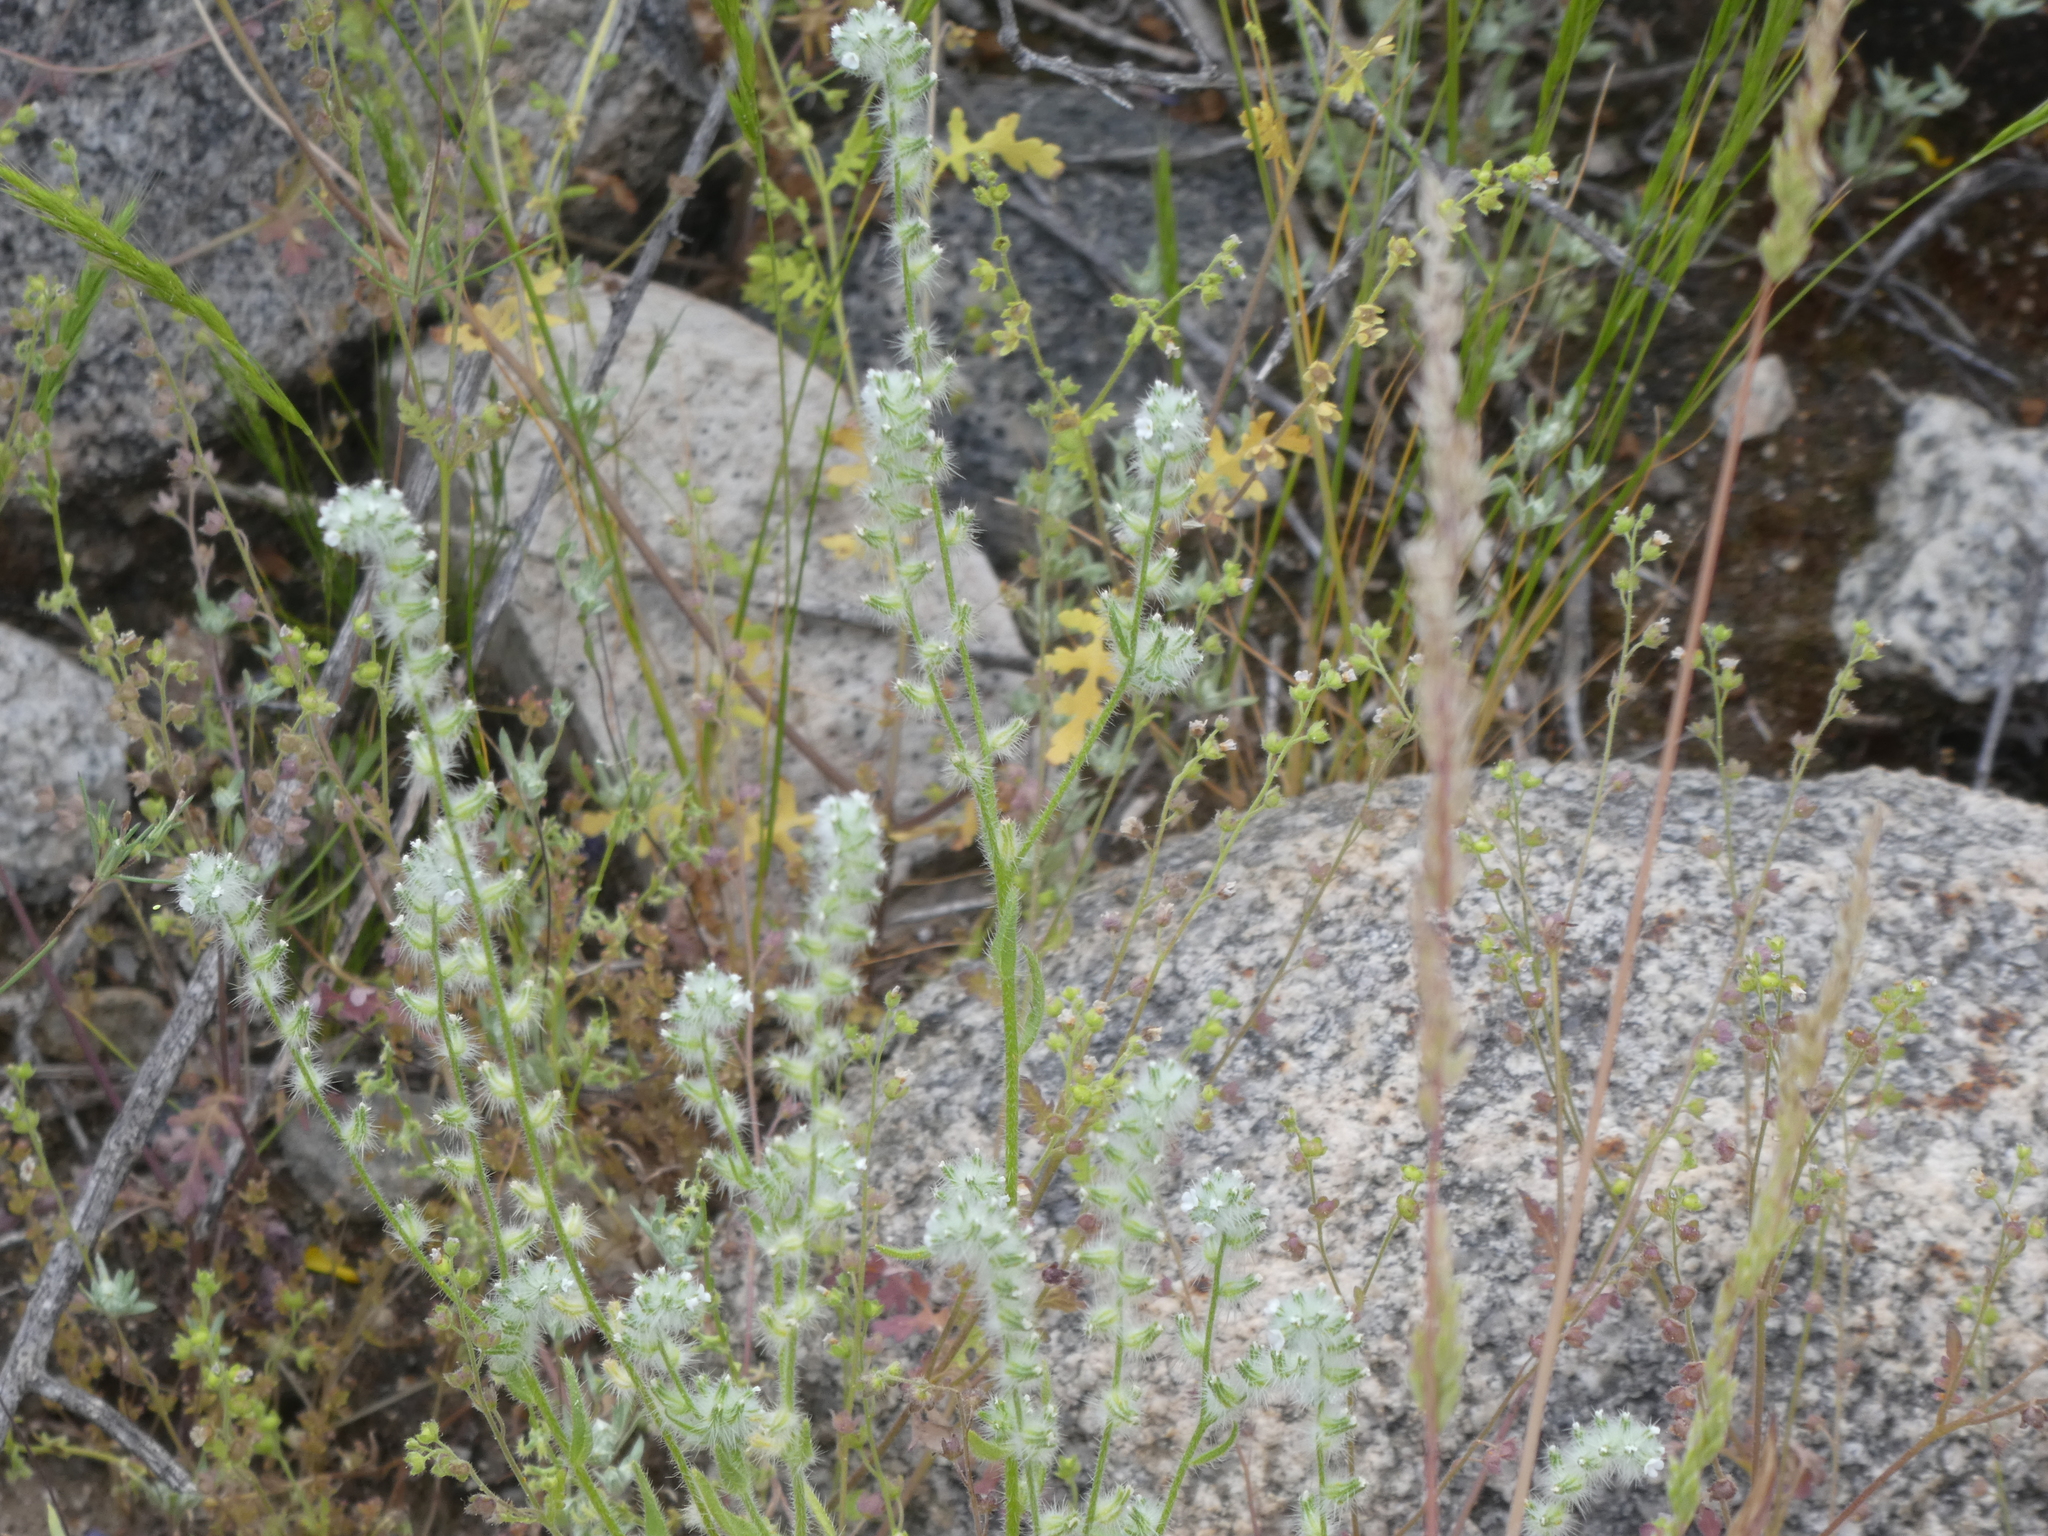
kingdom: Plantae
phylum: Tracheophyta
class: Magnoliopsida
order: Boraginales
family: Boraginaceae
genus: Cryptantha
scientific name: Cryptantha
